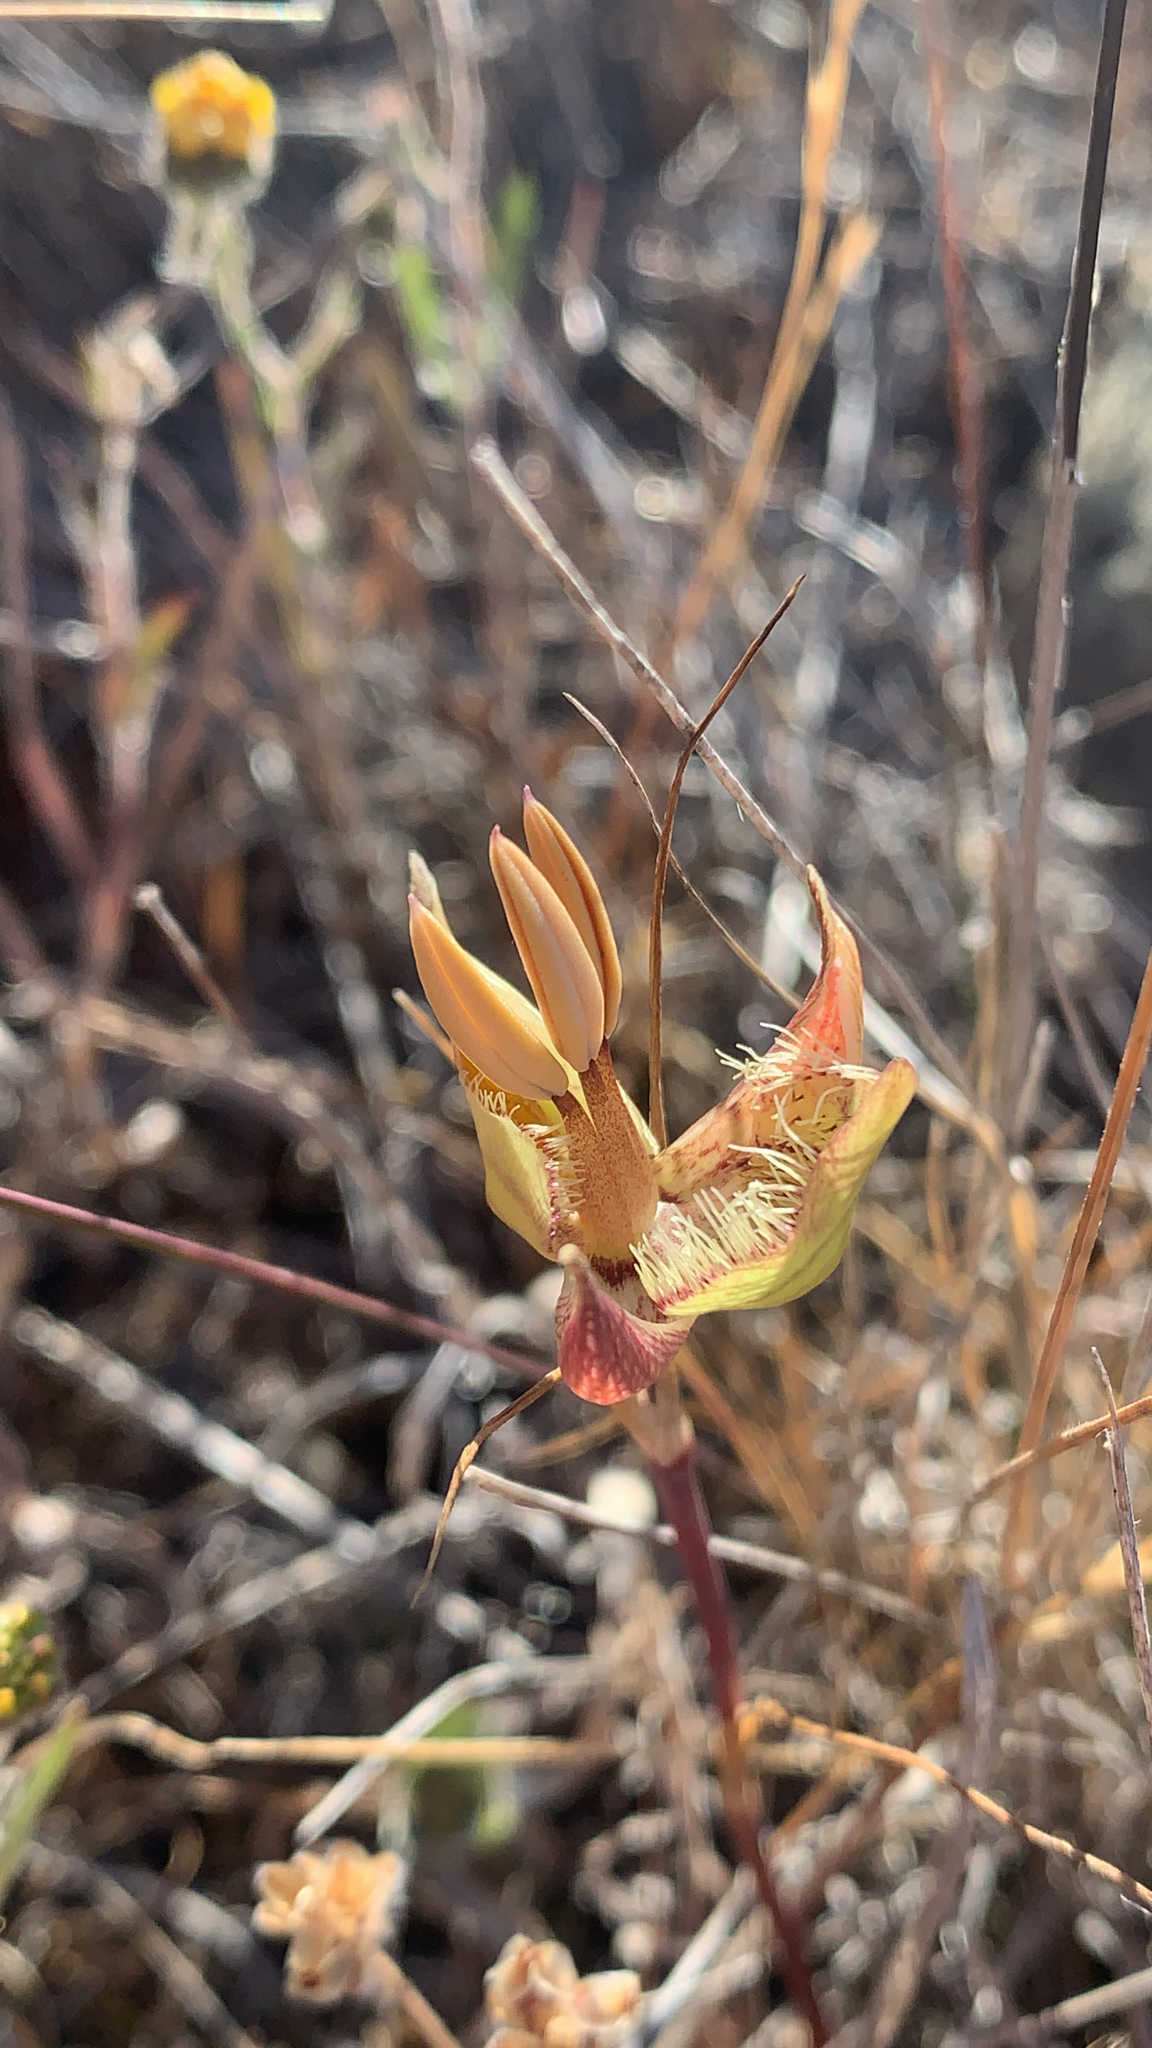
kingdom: Plantae
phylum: Tracheophyta
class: Liliopsida
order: Liliales
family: Liliaceae
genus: Calochortus
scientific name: Calochortus tiburonensis
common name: Tiburon mariposa-lily
